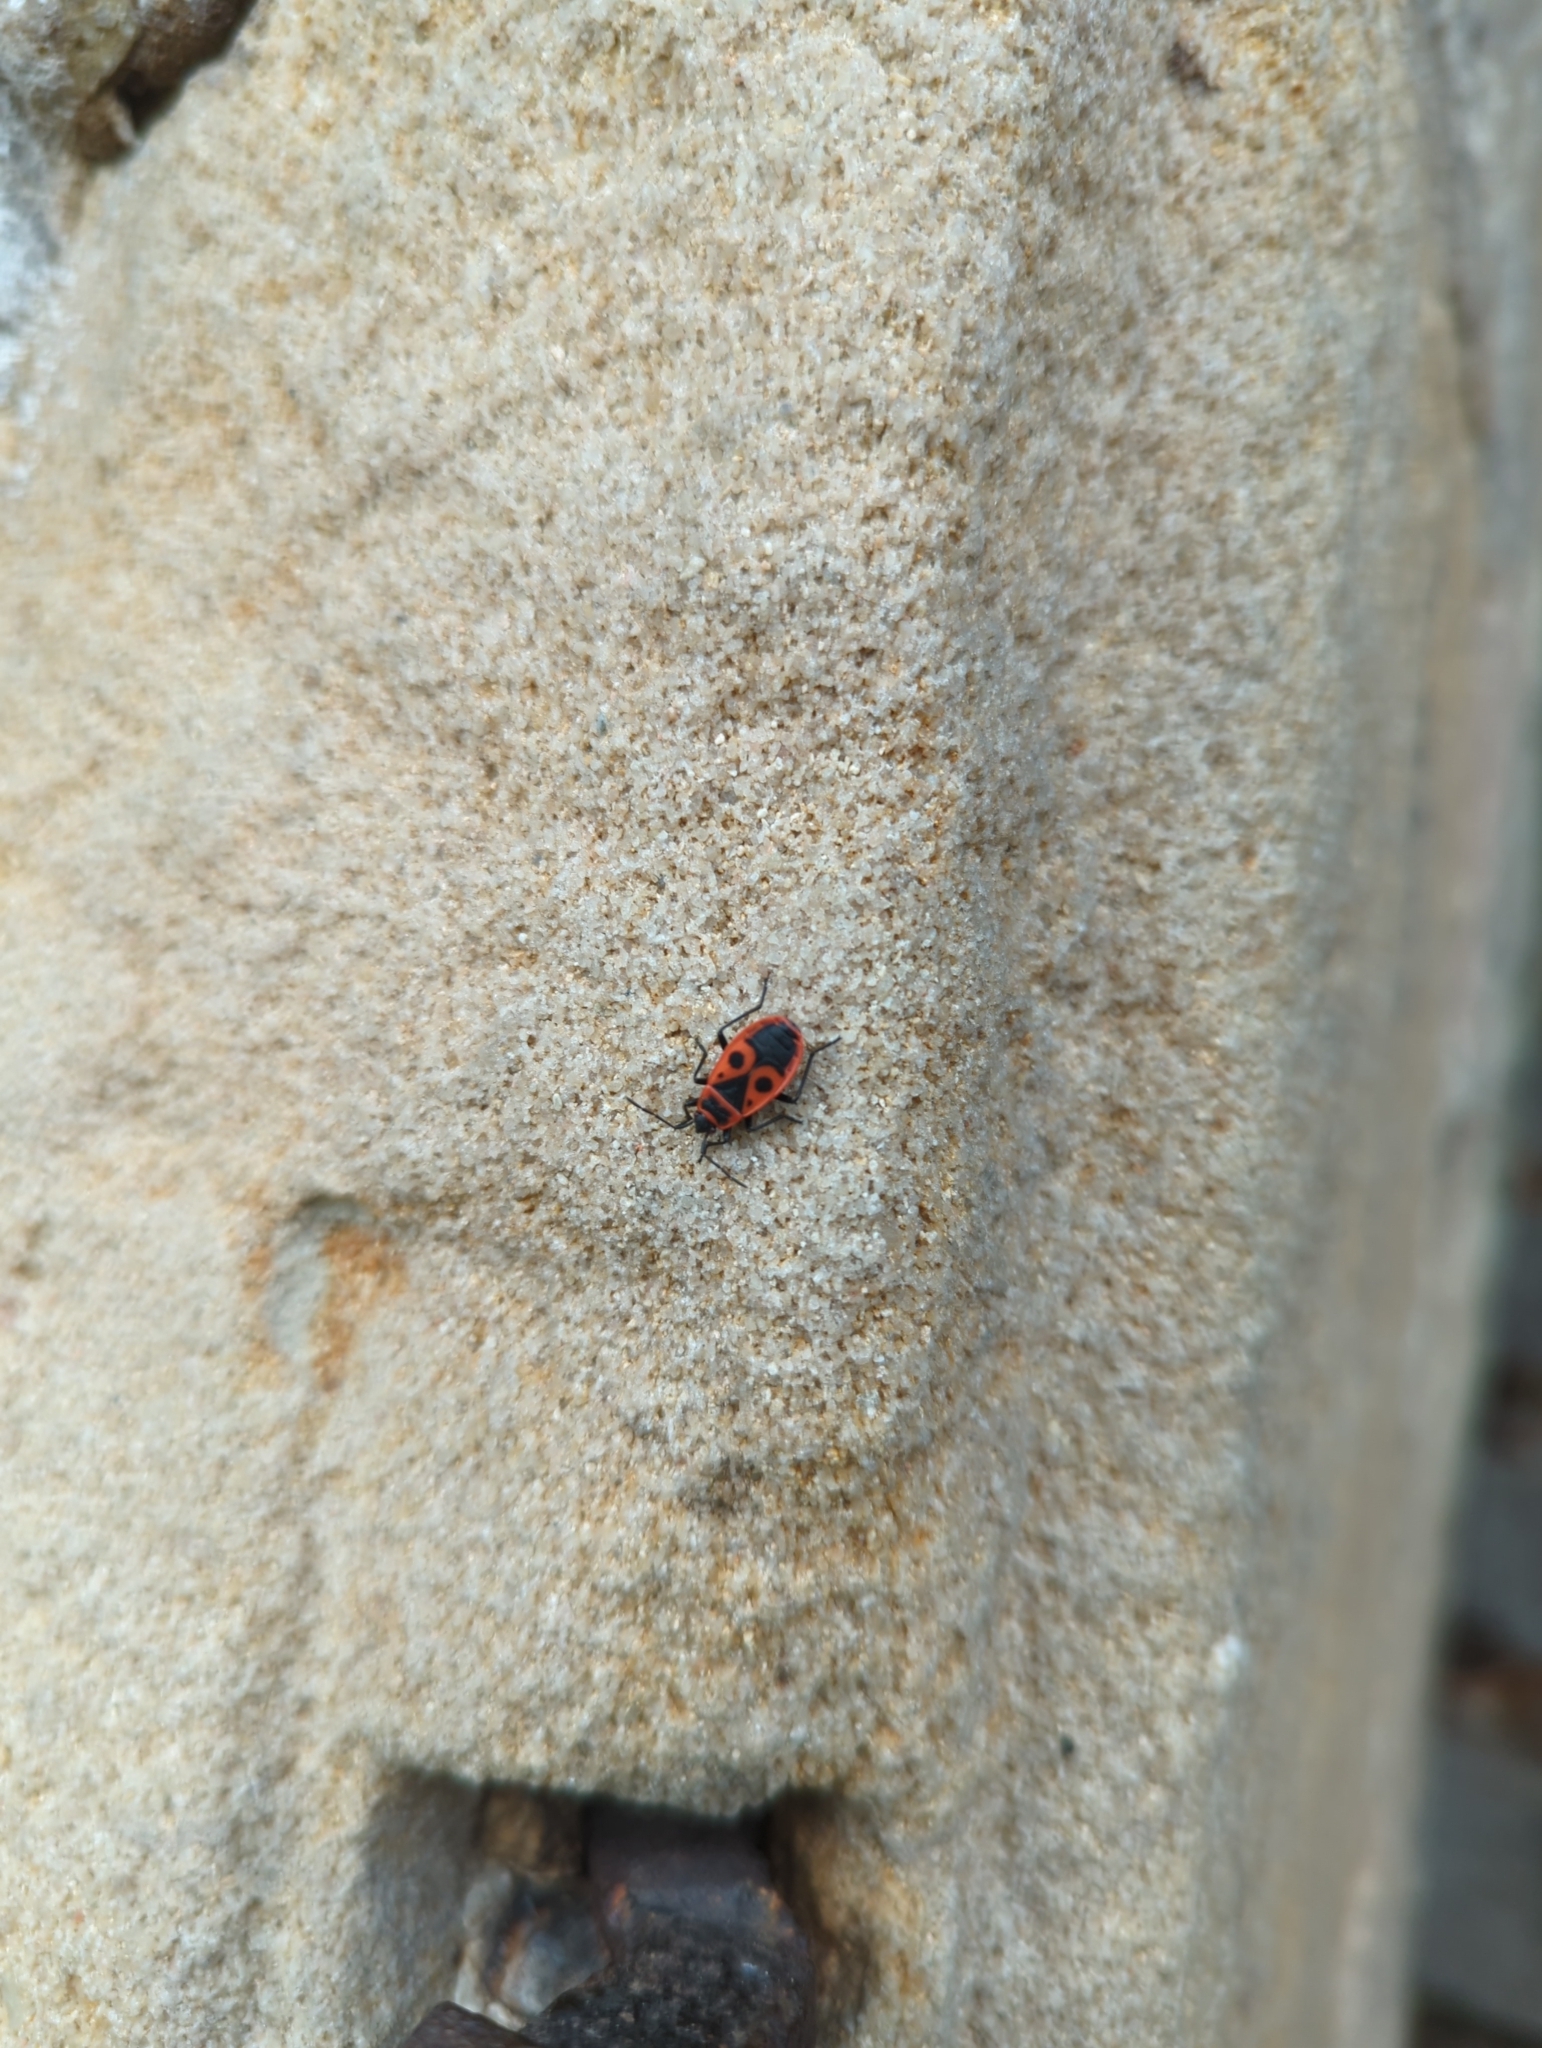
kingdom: Animalia
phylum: Arthropoda
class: Insecta
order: Hemiptera
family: Pyrrhocoridae
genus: Pyrrhocoris
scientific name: Pyrrhocoris apterus
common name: Firebug
